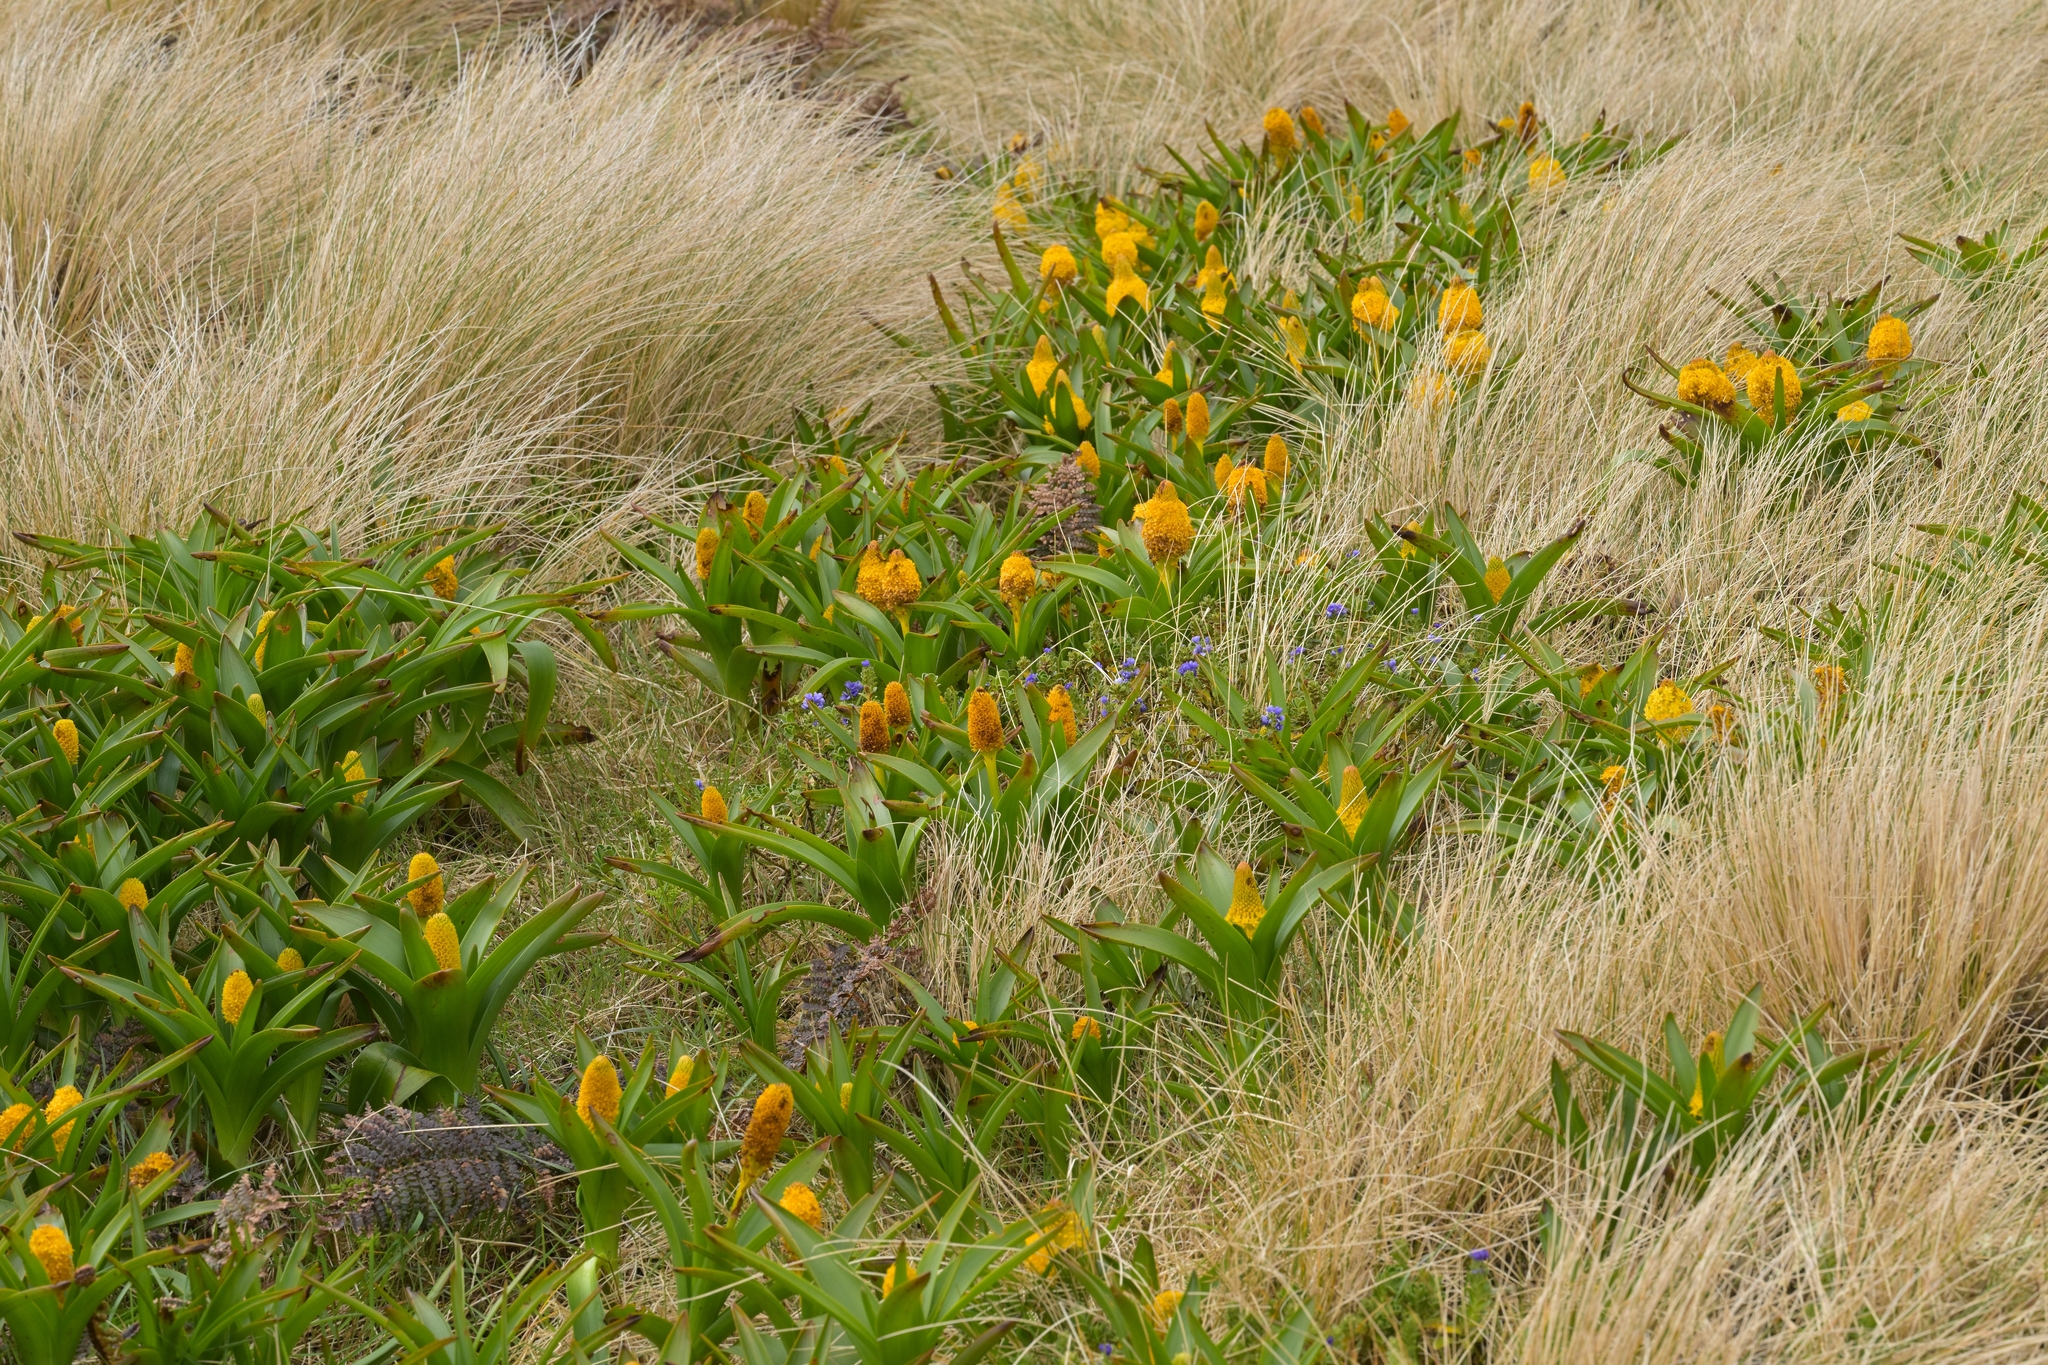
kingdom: Plantae
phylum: Tracheophyta
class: Magnoliopsida
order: Lamiales
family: Plantaginaceae
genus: Veronica
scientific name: Veronica benthamii
